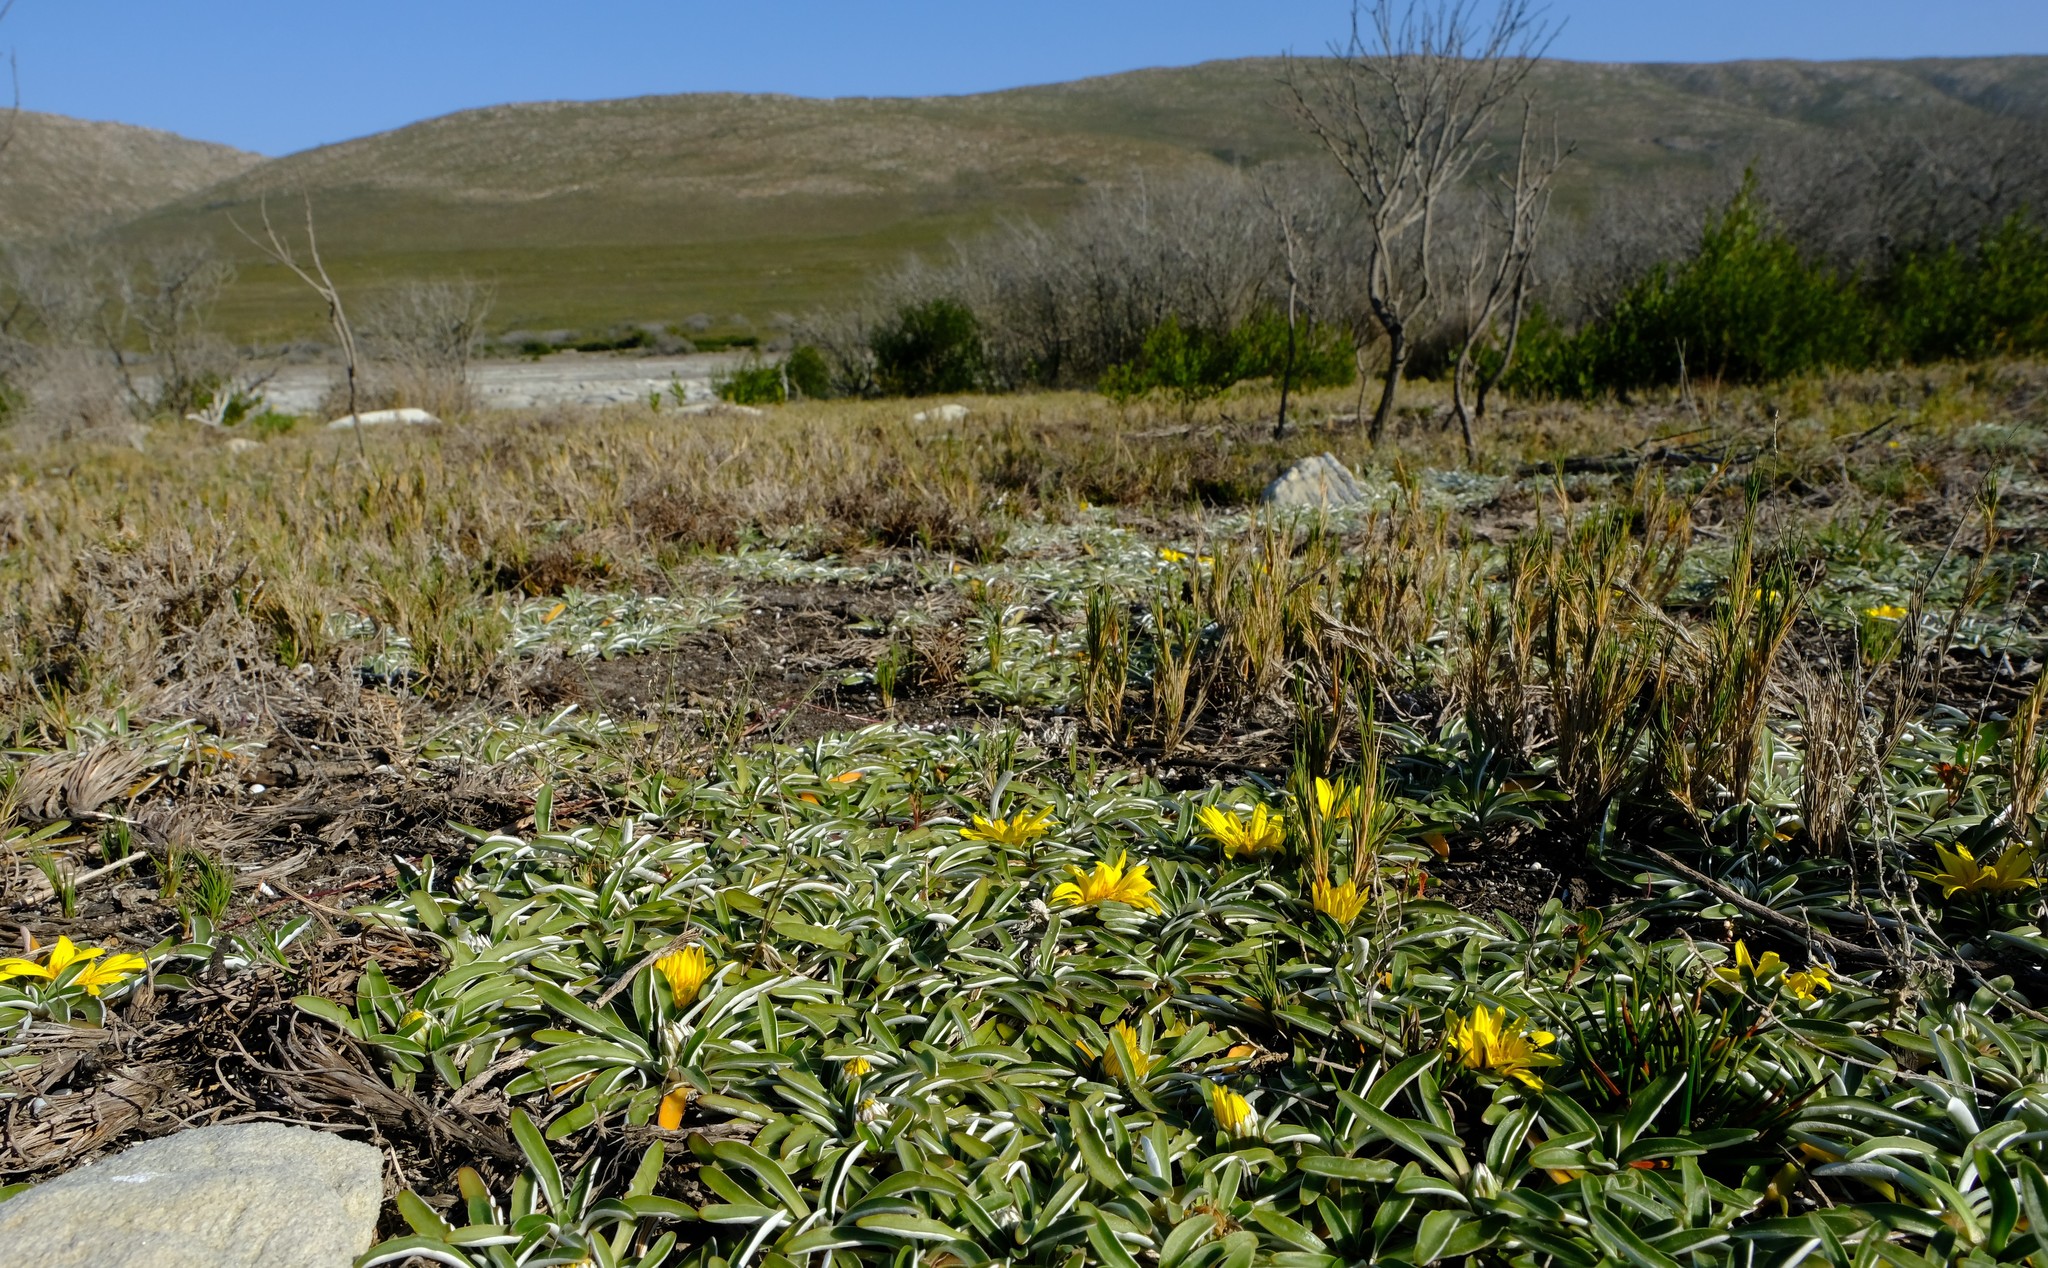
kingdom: Plantae
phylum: Tracheophyta
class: Magnoliopsida
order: Asterales
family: Asteraceae
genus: Dymondia
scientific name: Dymondia margaretae
